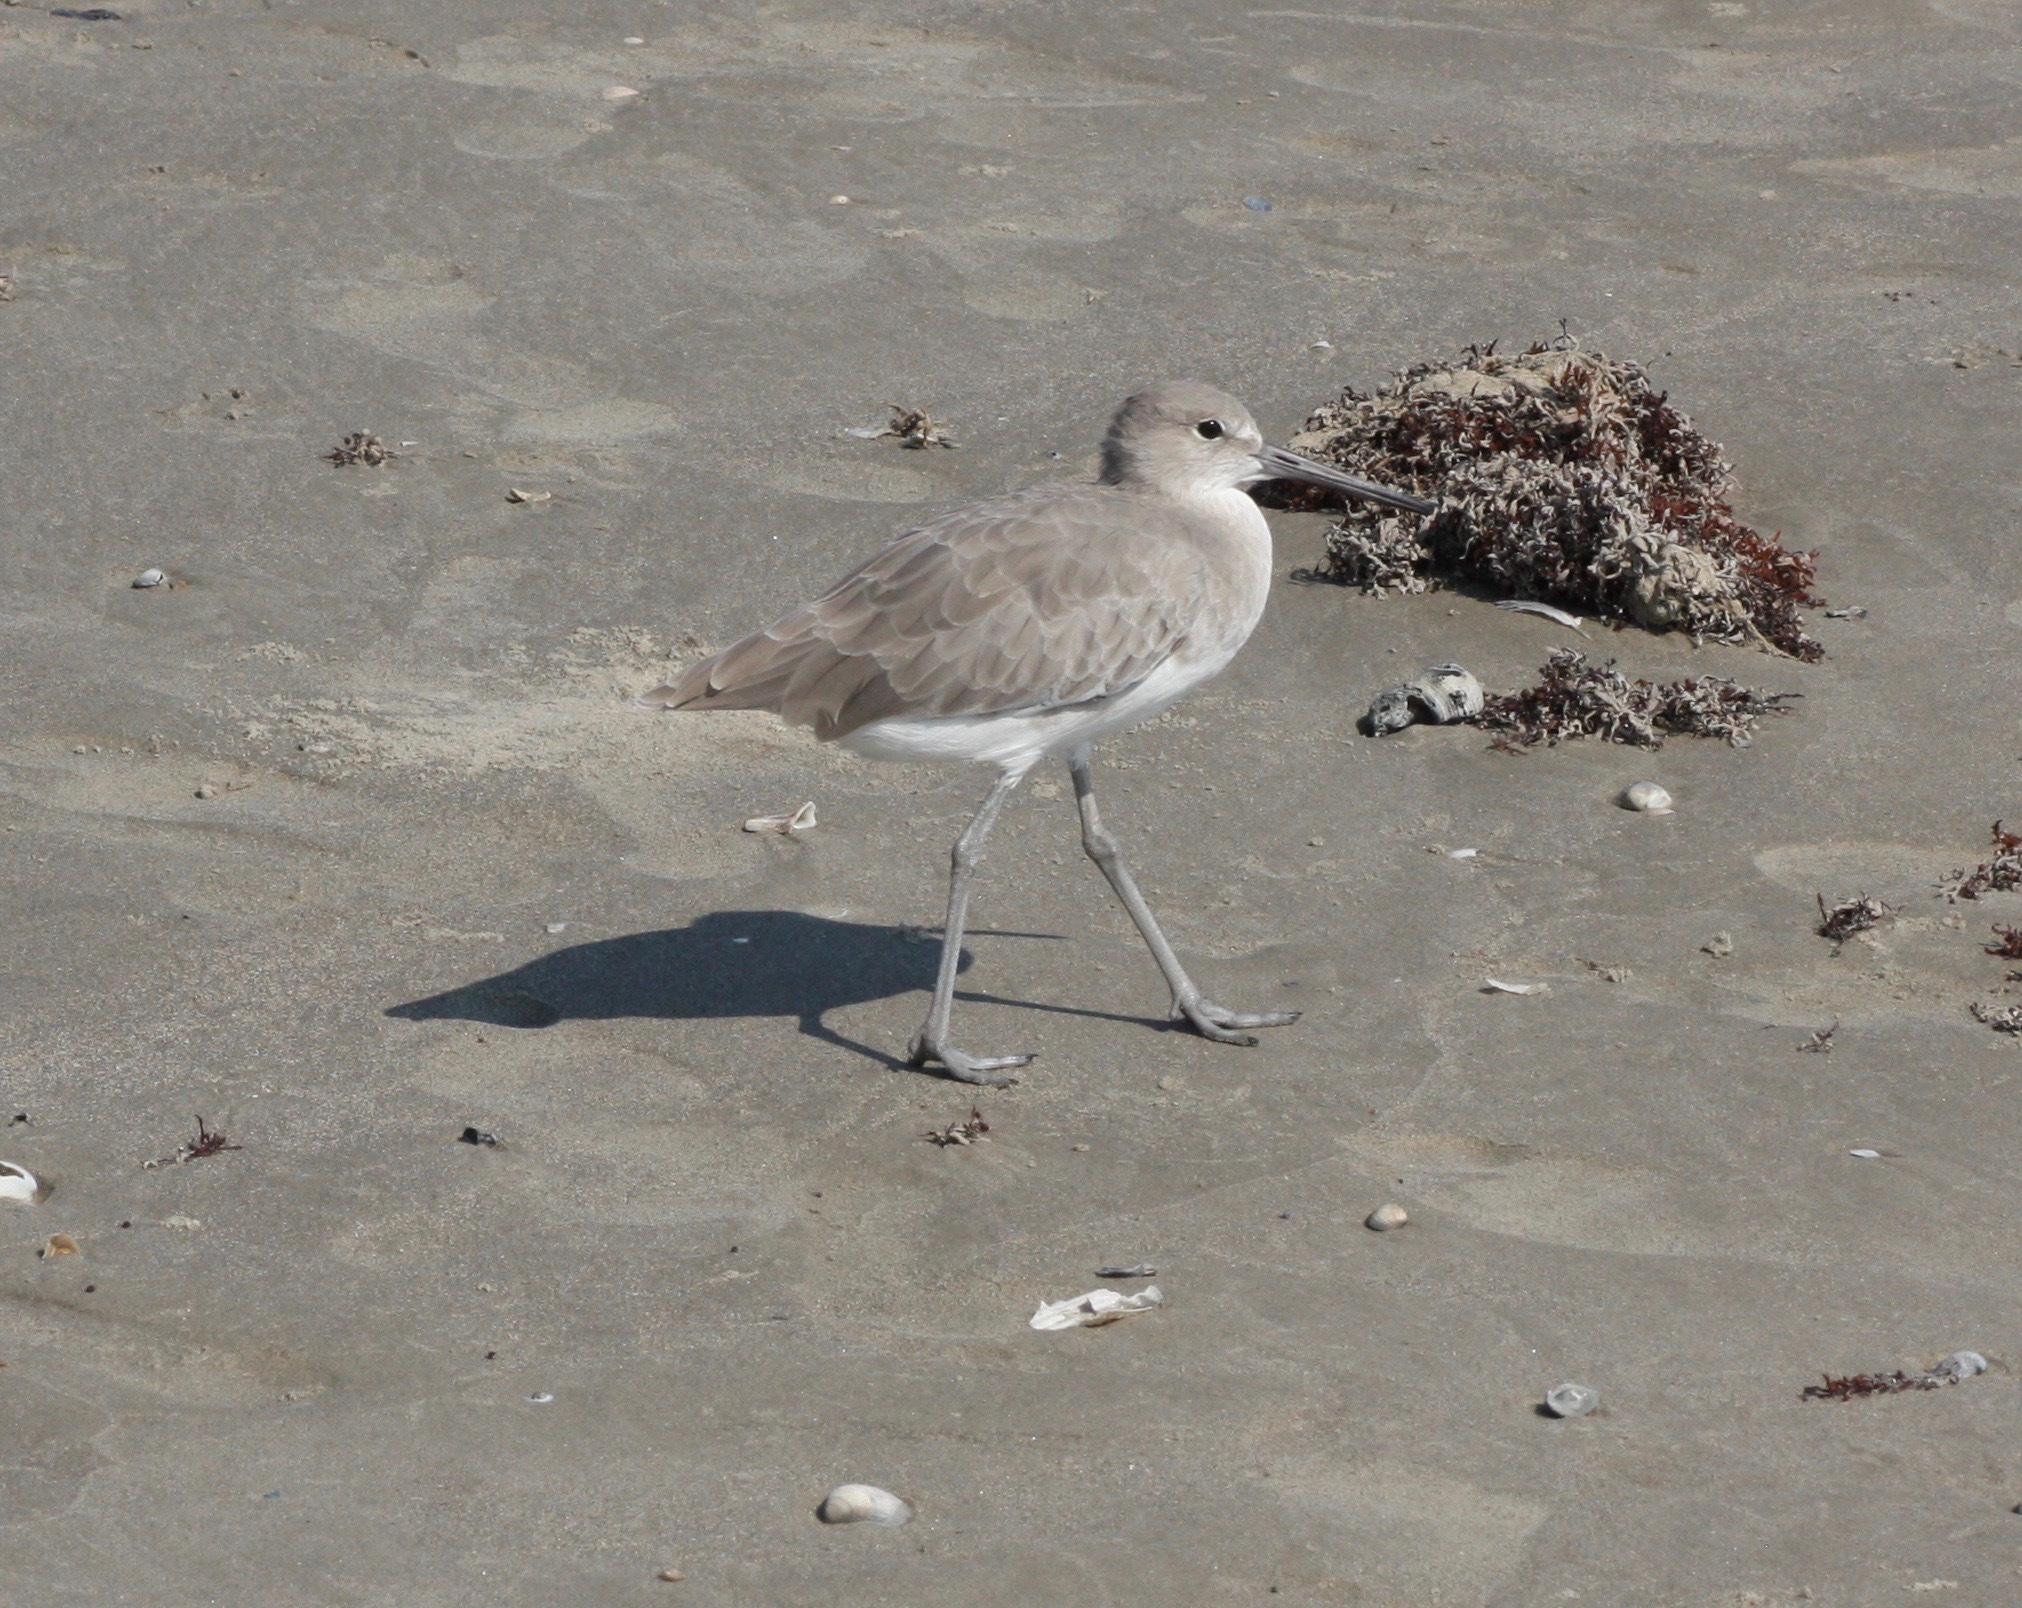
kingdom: Animalia
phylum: Chordata
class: Aves
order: Charadriiformes
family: Scolopacidae
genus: Tringa
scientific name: Tringa semipalmata
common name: Willet
